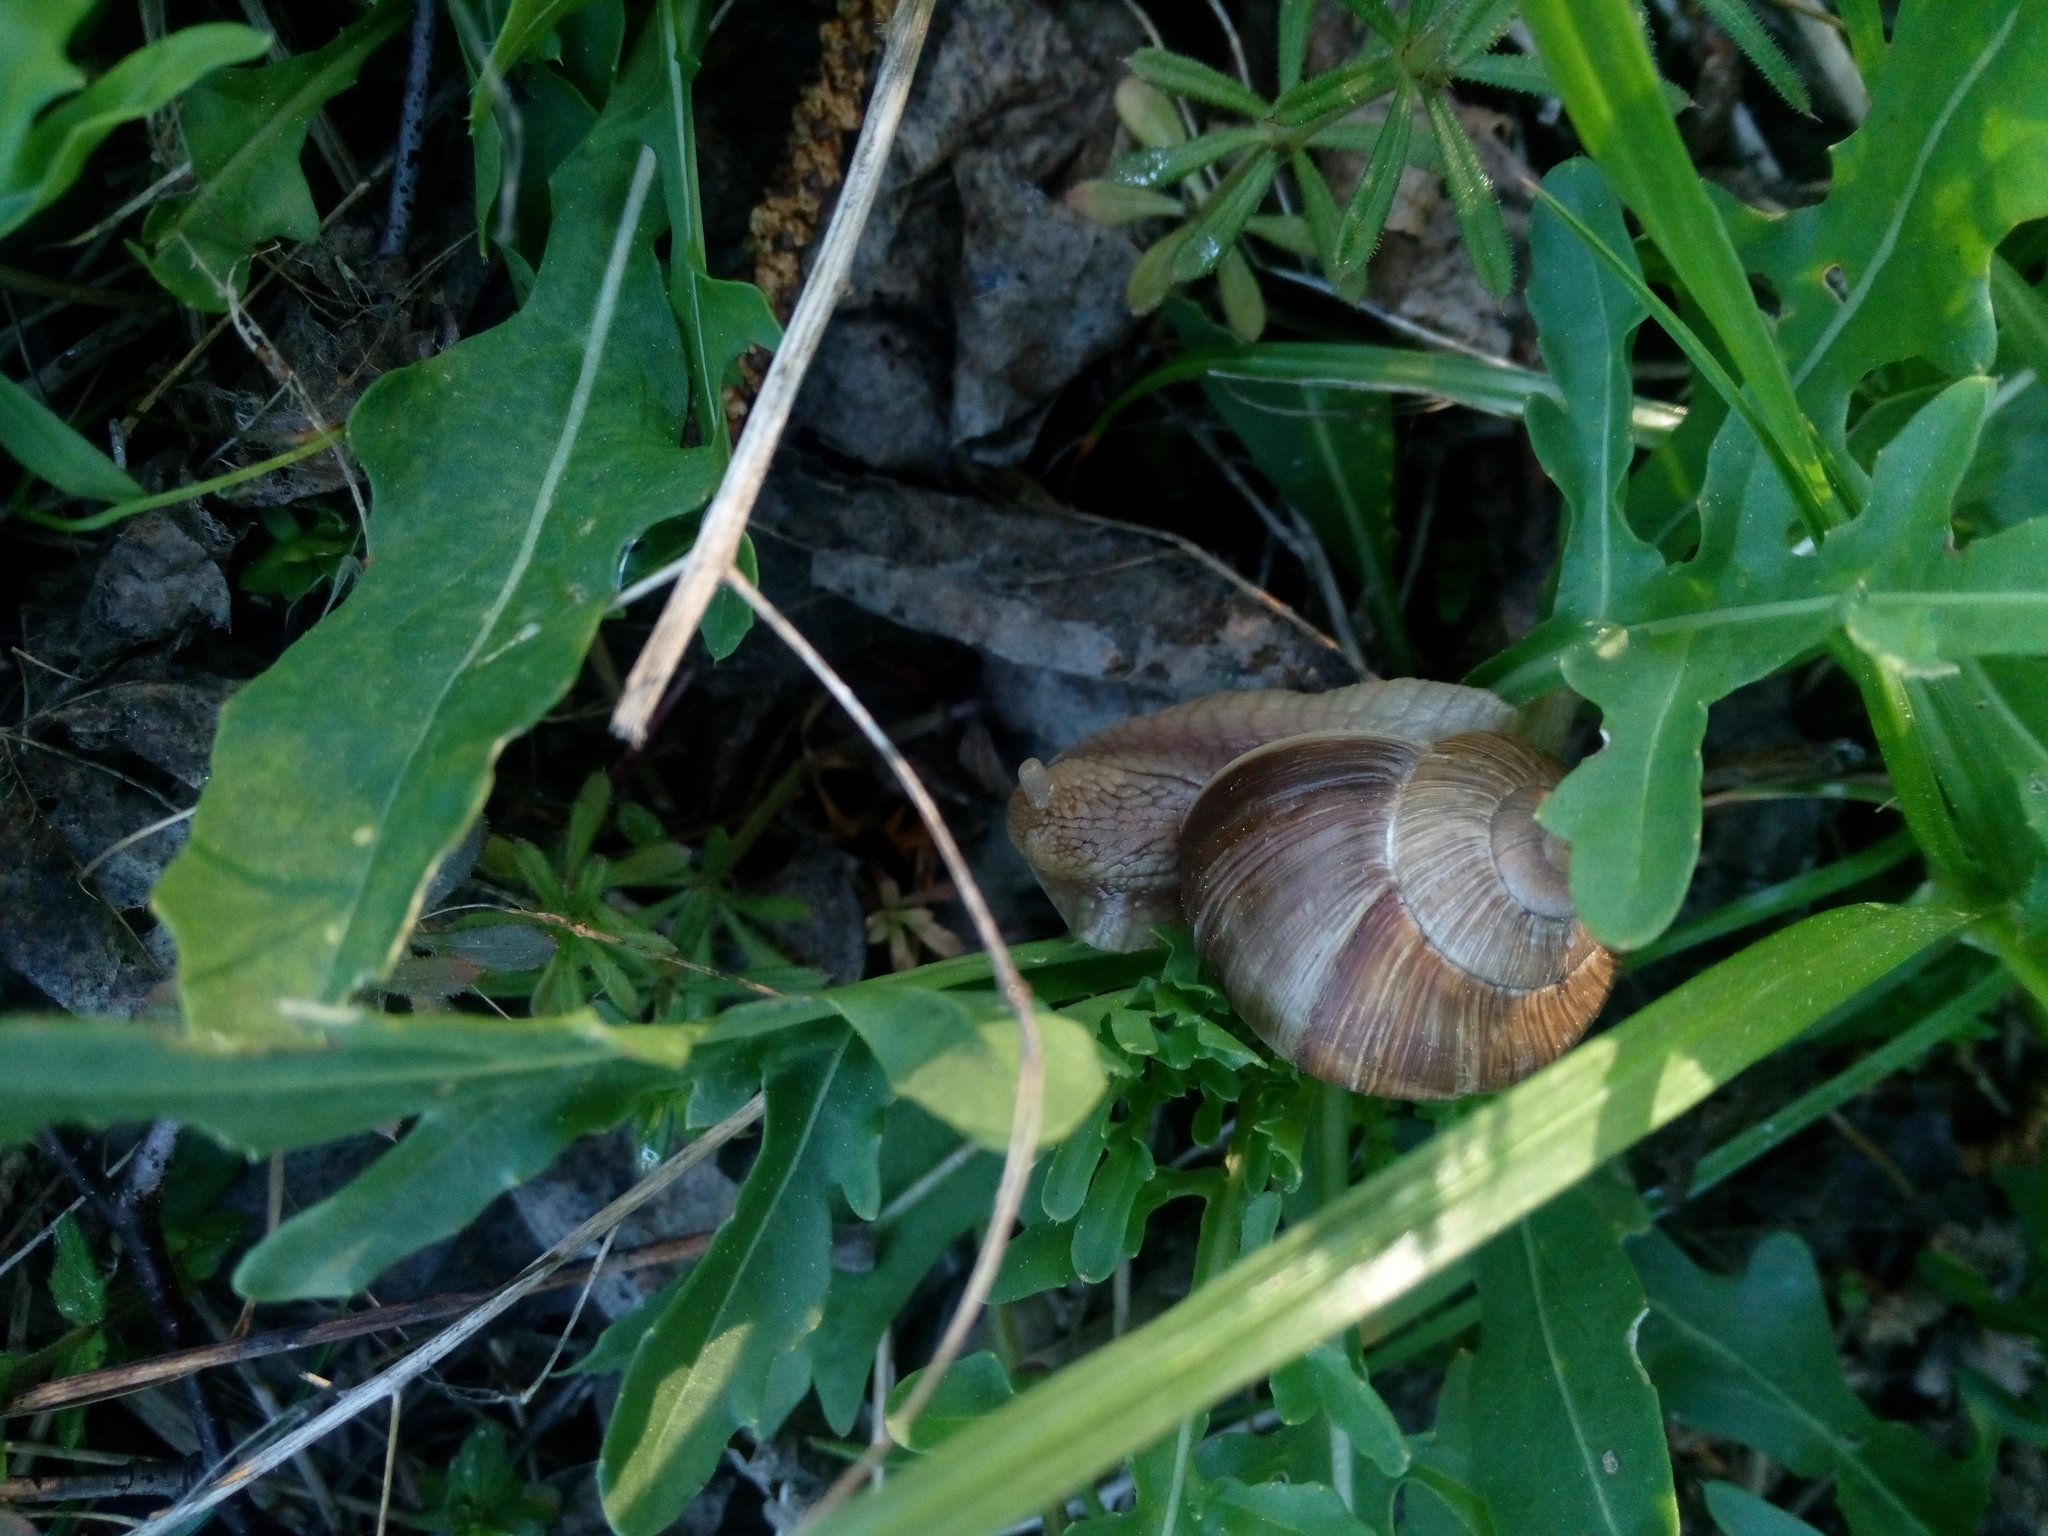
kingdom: Animalia
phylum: Mollusca
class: Gastropoda
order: Stylommatophora
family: Helicidae
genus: Helix
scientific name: Helix pomatia
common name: Roman snail
